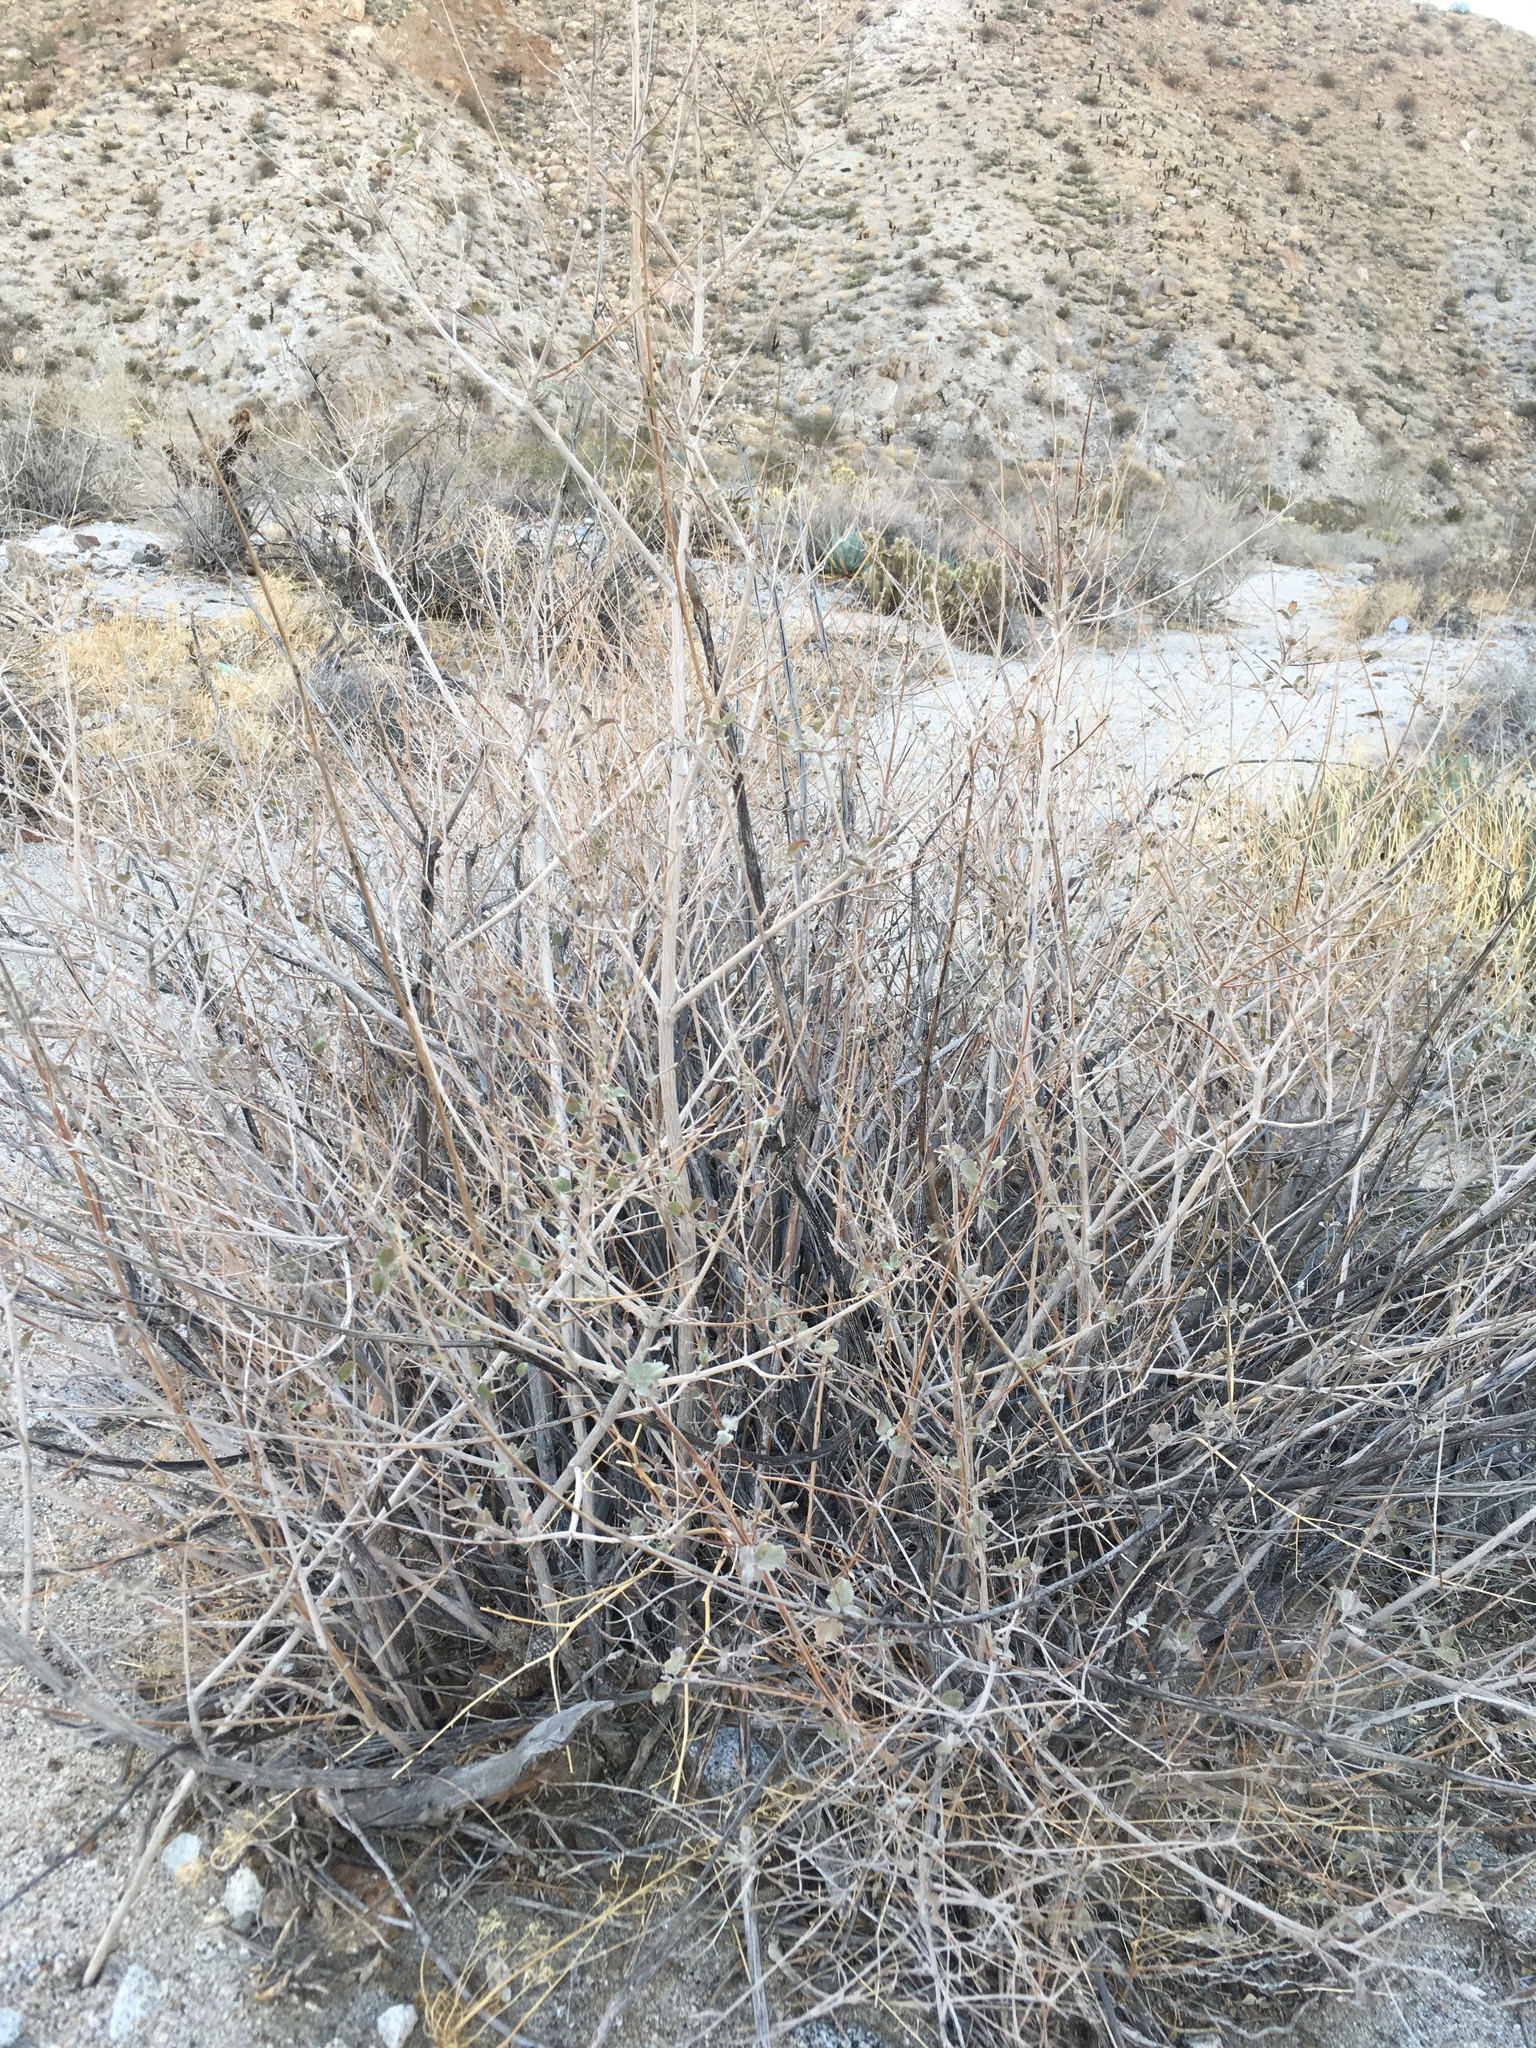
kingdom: Plantae
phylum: Tracheophyta
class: Magnoliopsida
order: Lamiales
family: Lamiaceae
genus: Condea
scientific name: Condea emoryi
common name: Chia
